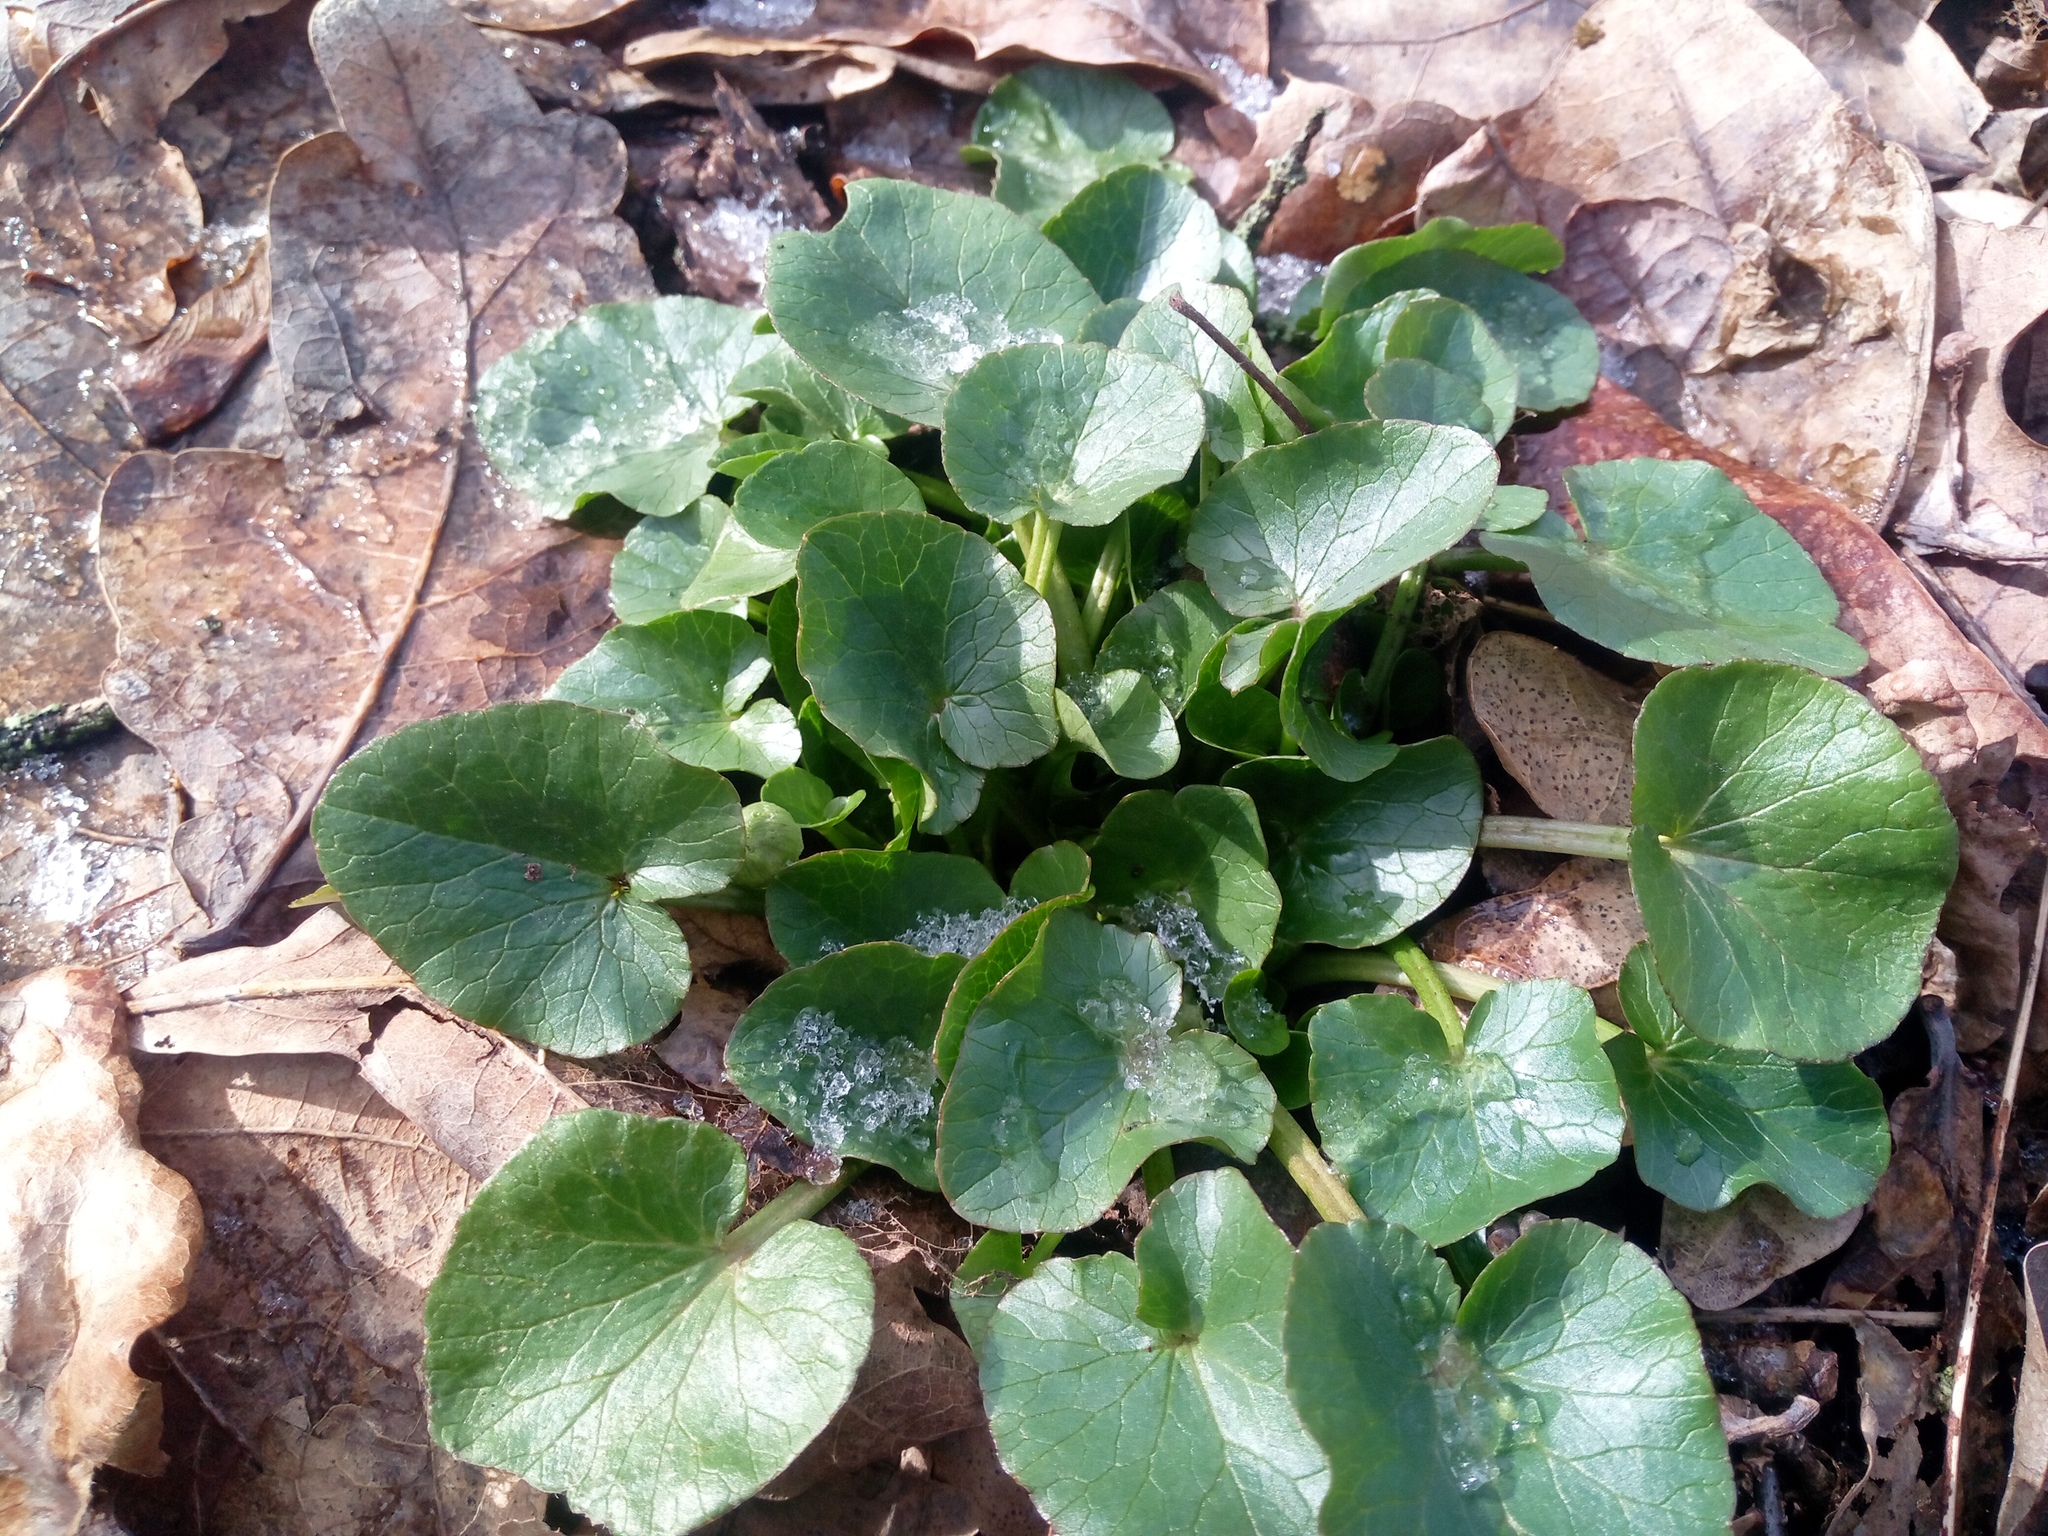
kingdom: Plantae
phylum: Tracheophyta
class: Magnoliopsida
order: Ranunculales
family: Ranunculaceae
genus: Ficaria
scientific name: Ficaria verna
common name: Lesser celandine
